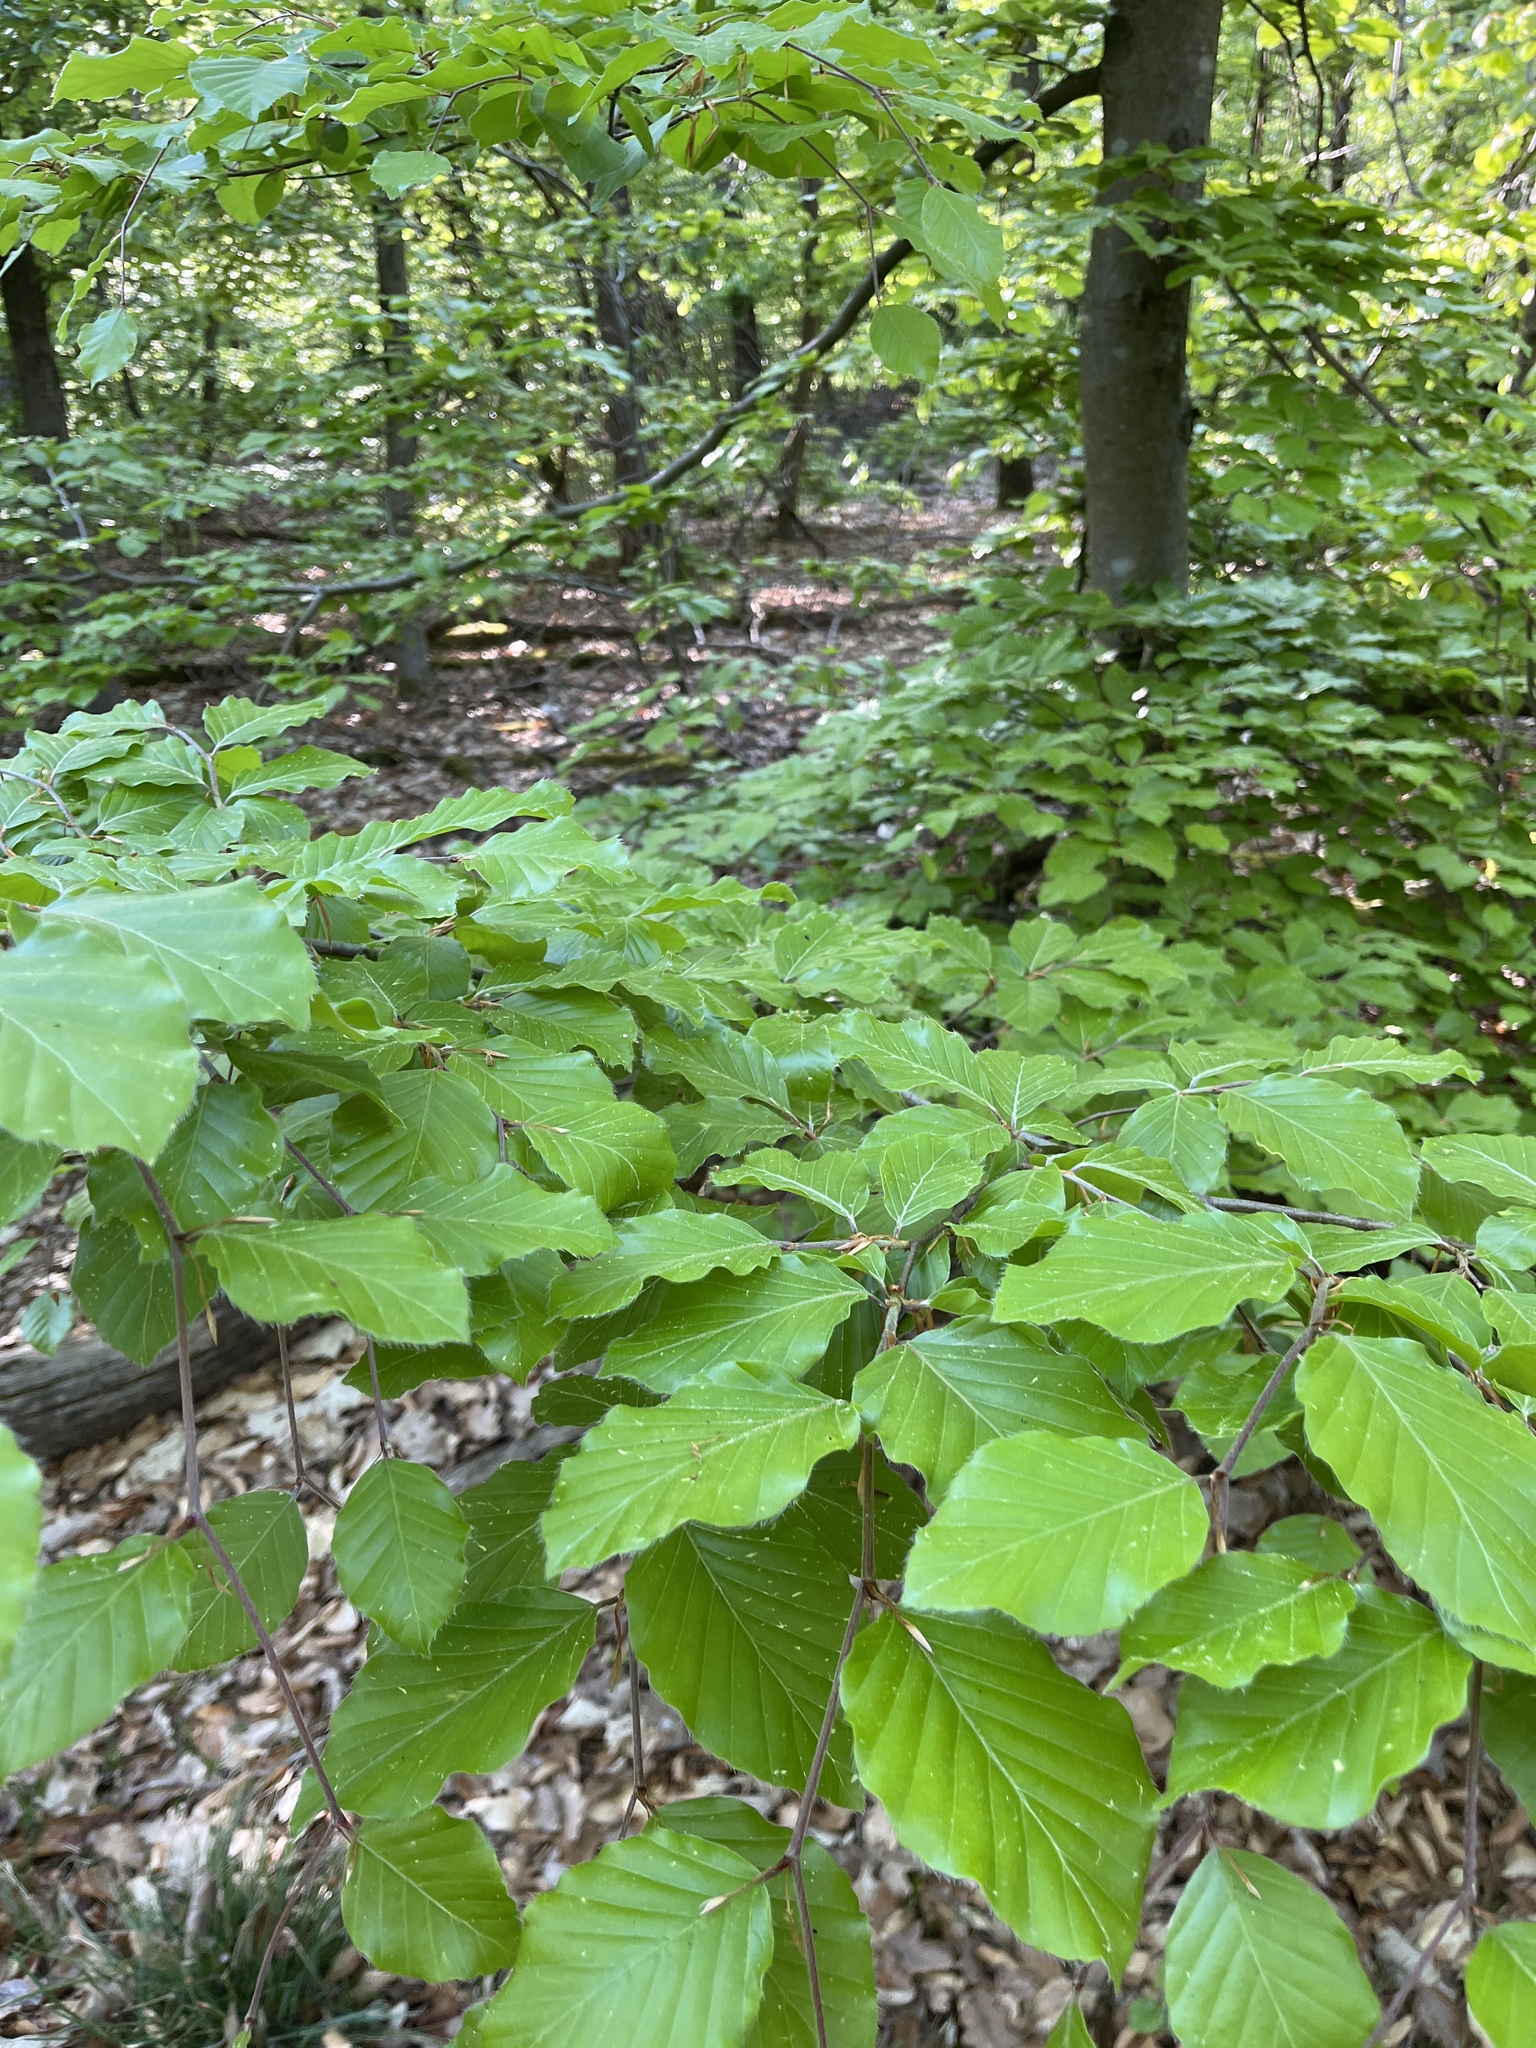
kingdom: Plantae
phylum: Tracheophyta
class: Magnoliopsida
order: Fagales
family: Fagaceae
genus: Fagus
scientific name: Fagus sylvatica
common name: Beech
